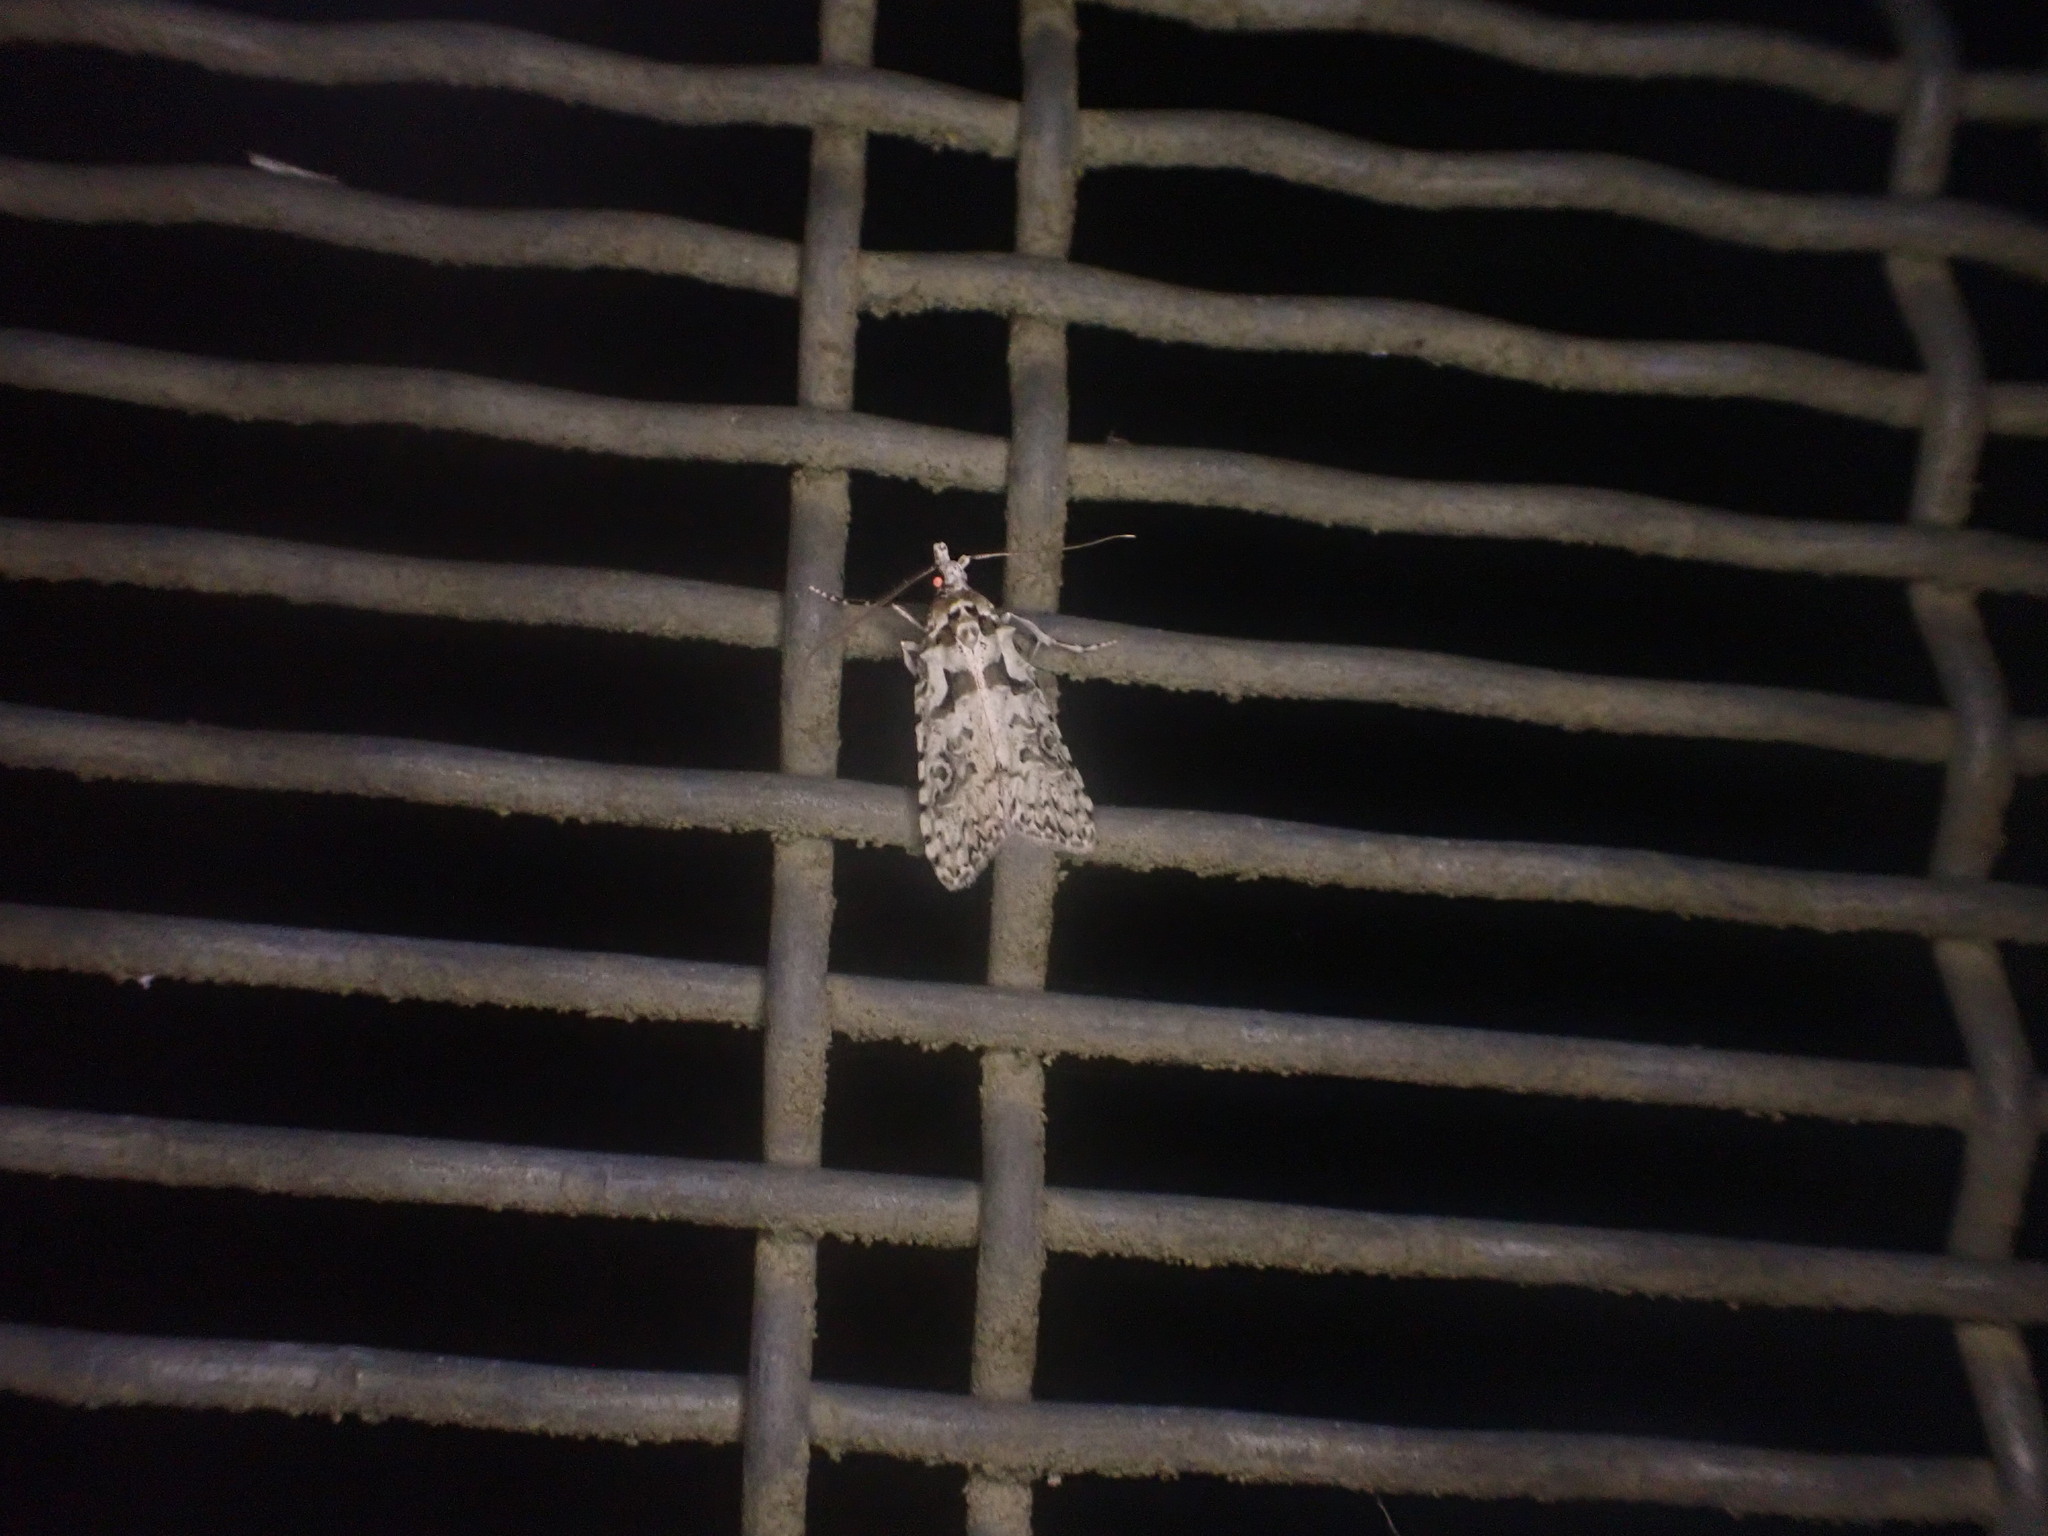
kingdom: Animalia
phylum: Arthropoda
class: Insecta
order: Lepidoptera
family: Carposinidae
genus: Carposina
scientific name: Carposina Heterocrossa eriphylla
